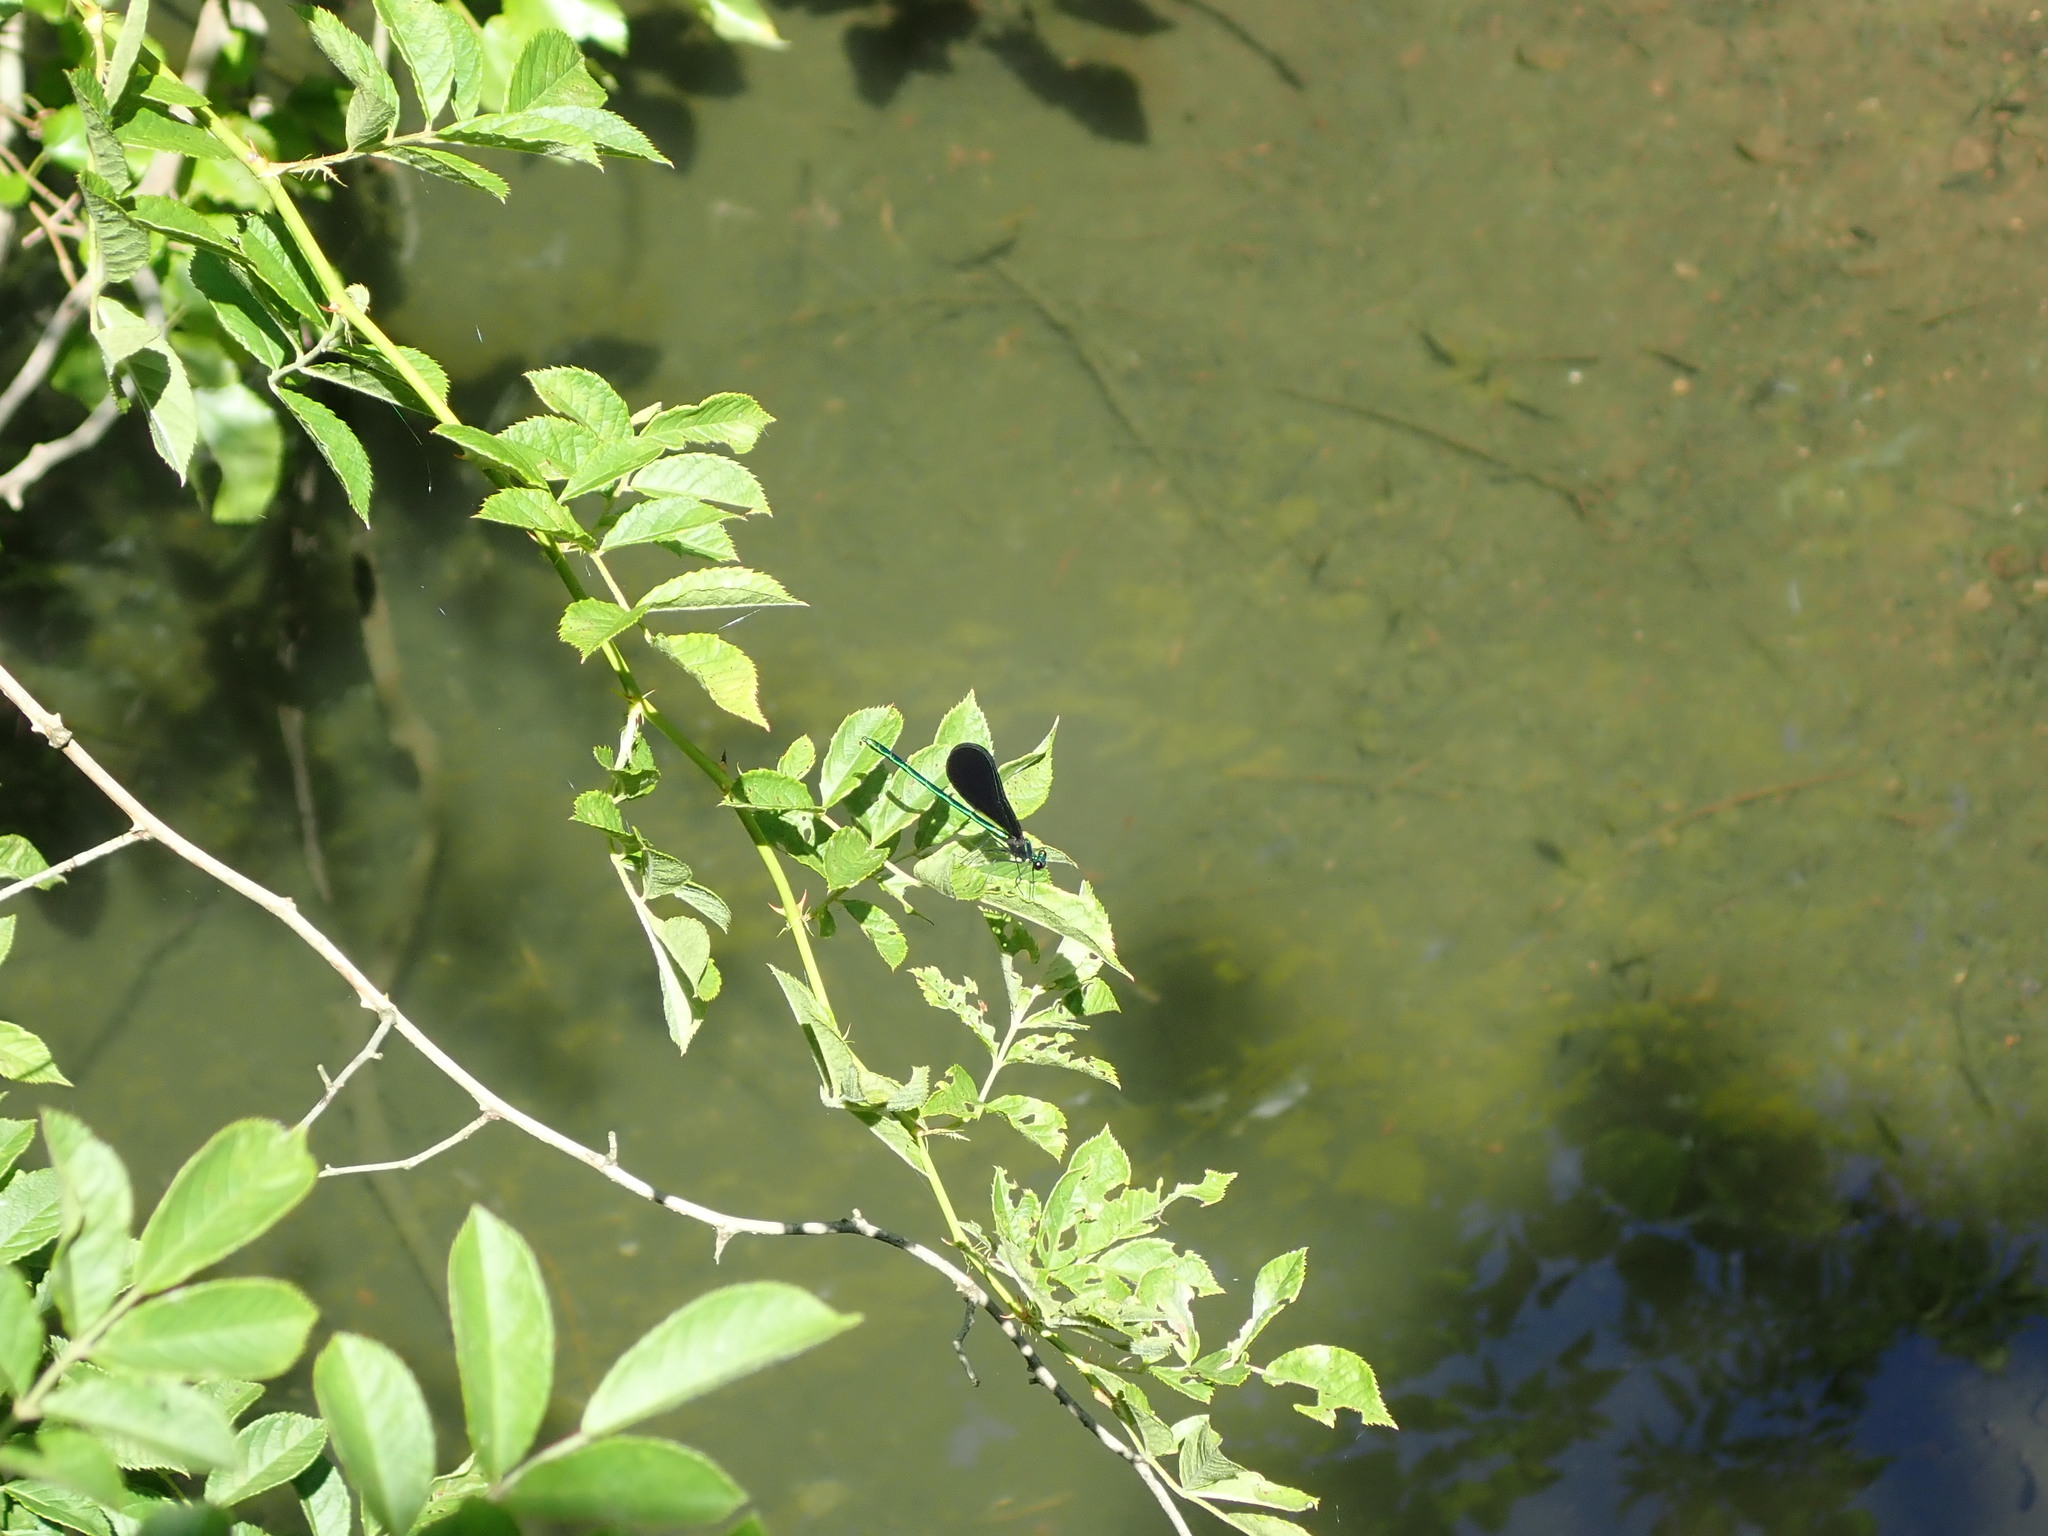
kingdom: Animalia
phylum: Arthropoda
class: Insecta
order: Odonata
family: Calopterygidae
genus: Calopteryx
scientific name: Calopteryx maculata
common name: Ebony jewelwing
